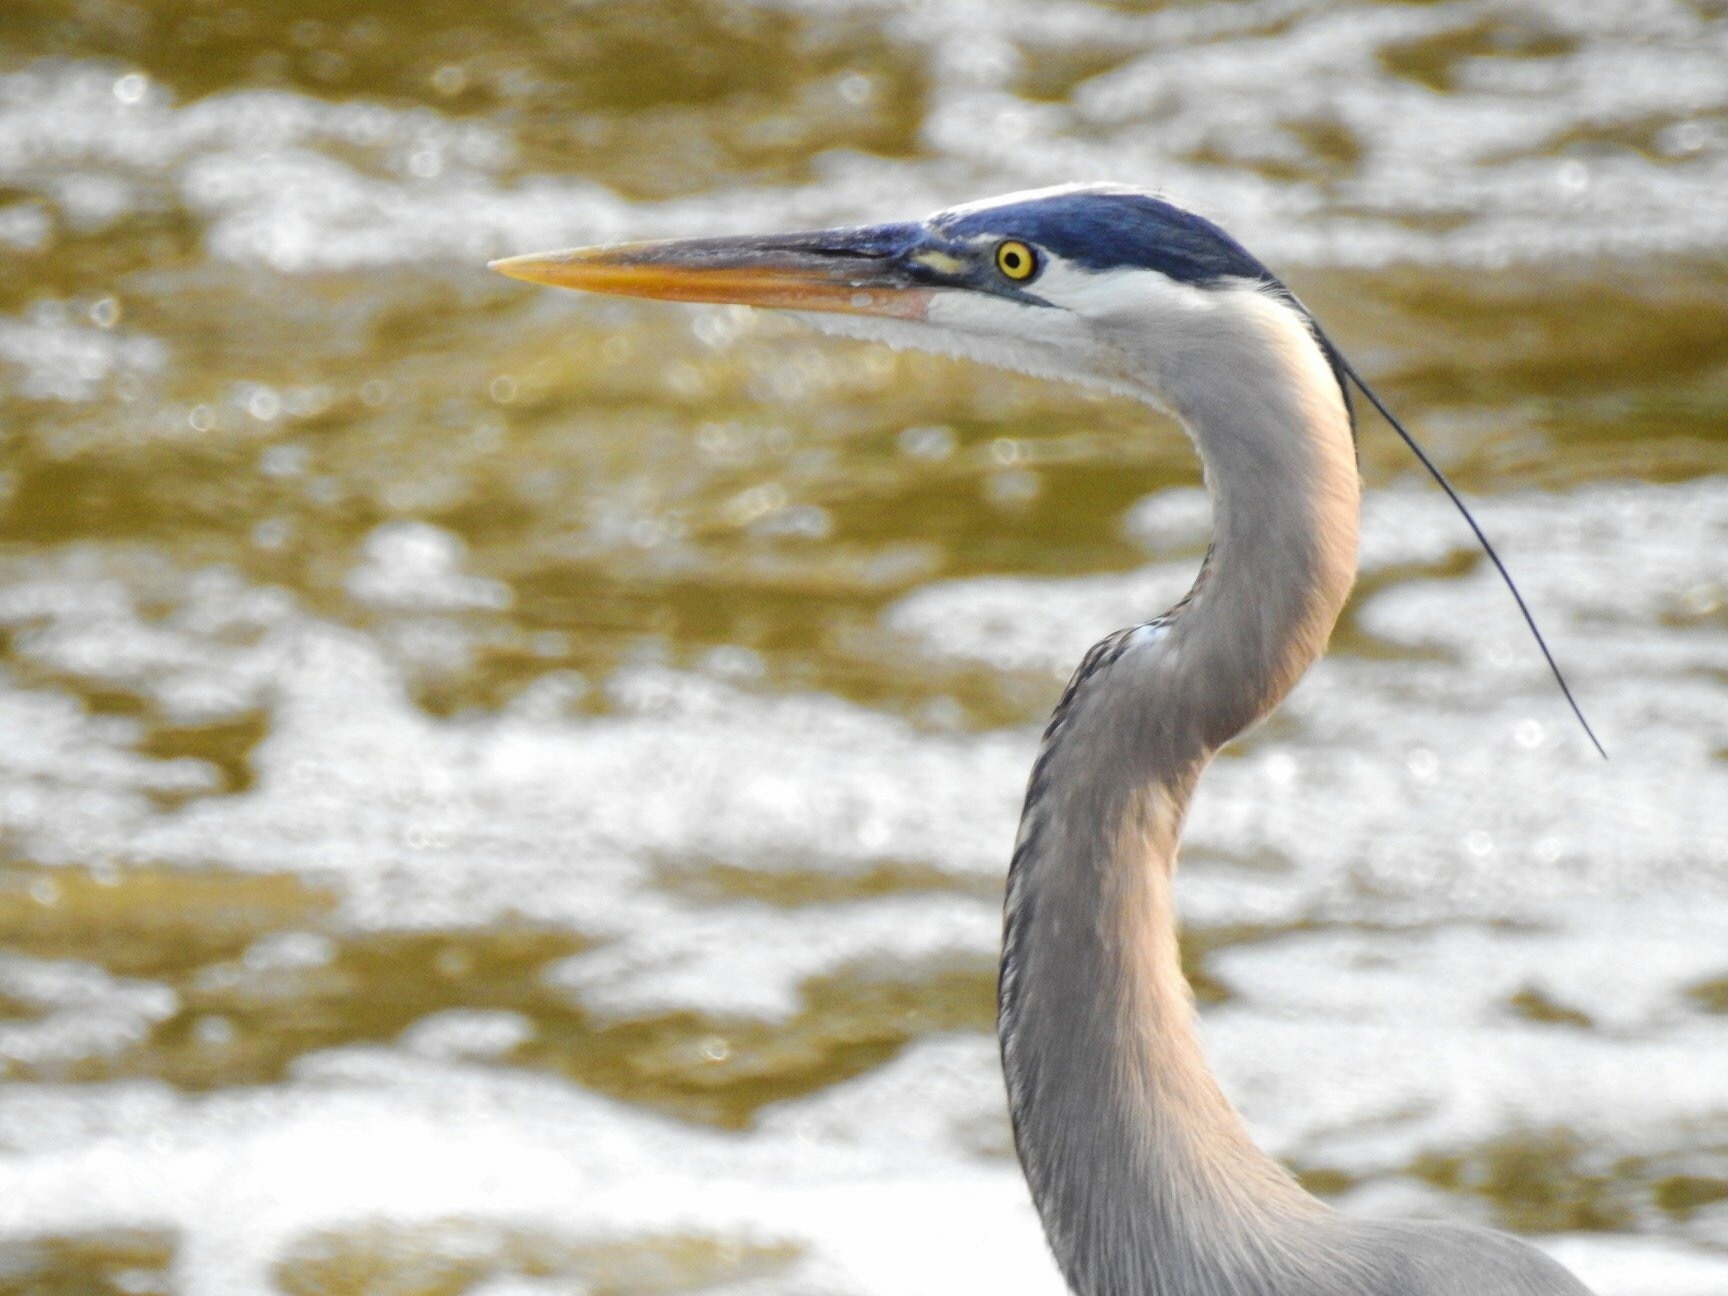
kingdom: Animalia
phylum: Chordata
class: Aves
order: Pelecaniformes
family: Ardeidae
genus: Ardea
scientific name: Ardea herodias
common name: Great blue heron
